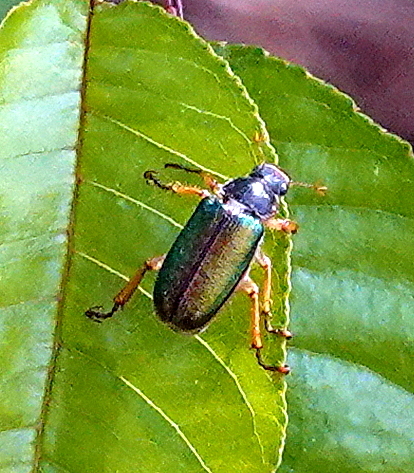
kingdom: Animalia
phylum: Arthropoda
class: Insecta
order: Coleoptera
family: Scarabaeidae
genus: Dichelonyx
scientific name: Dichelonyx linearis
